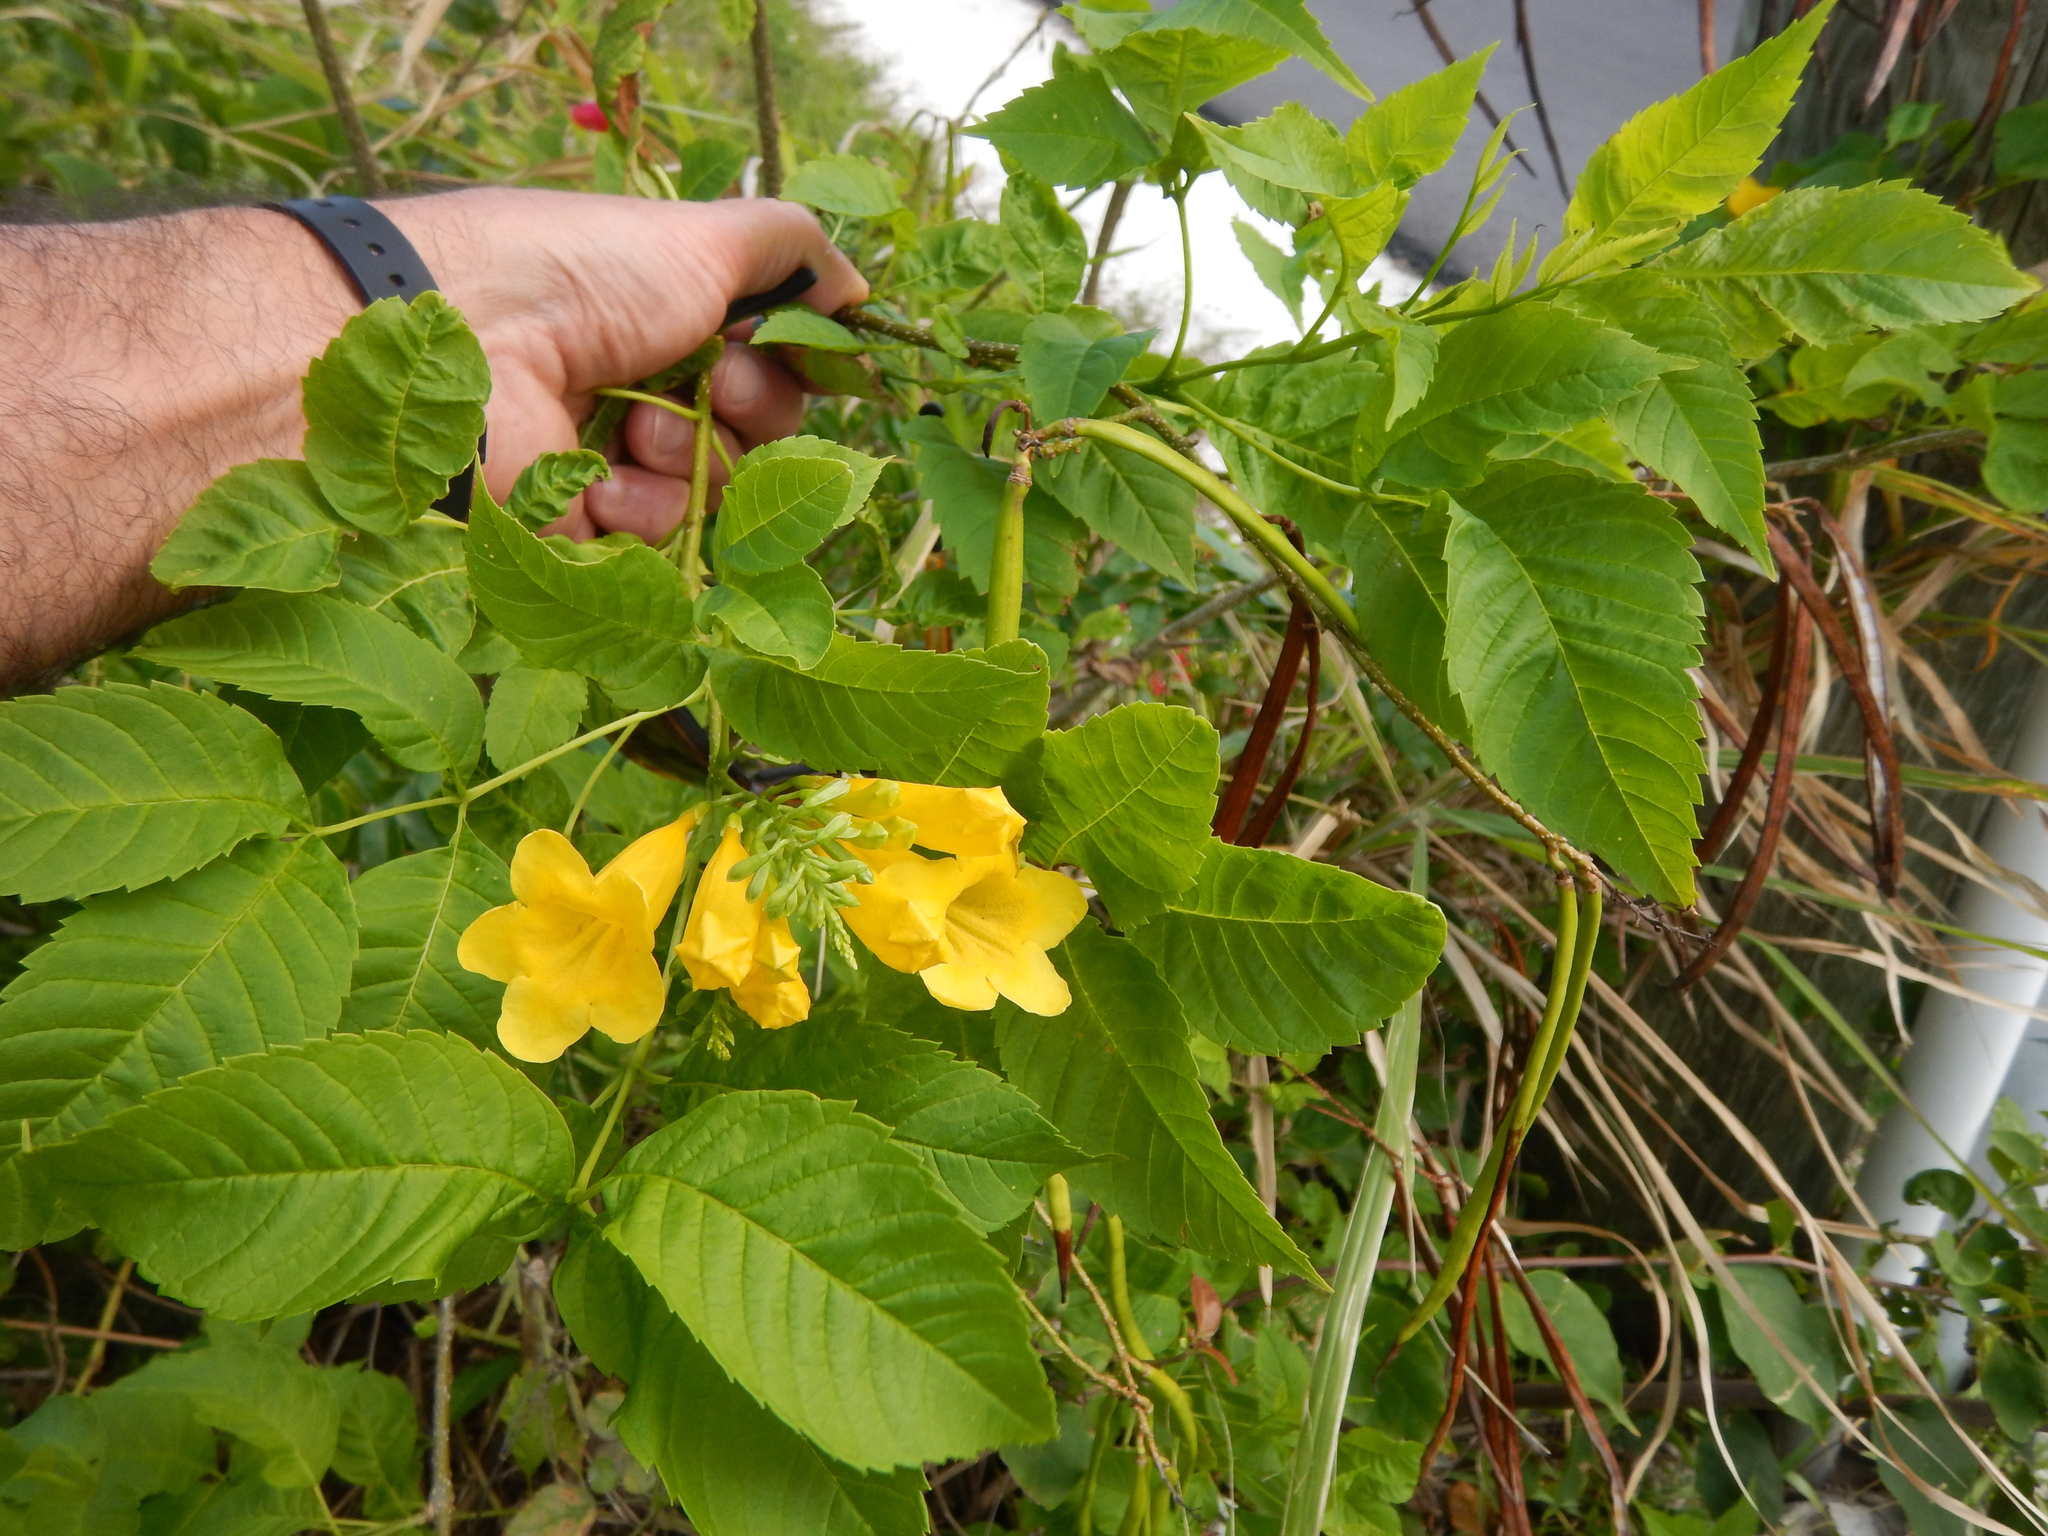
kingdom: Plantae
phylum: Tracheophyta
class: Magnoliopsida
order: Lamiales
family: Bignoniaceae
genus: Tecoma
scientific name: Tecoma stans
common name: Yellow trumpetbush
